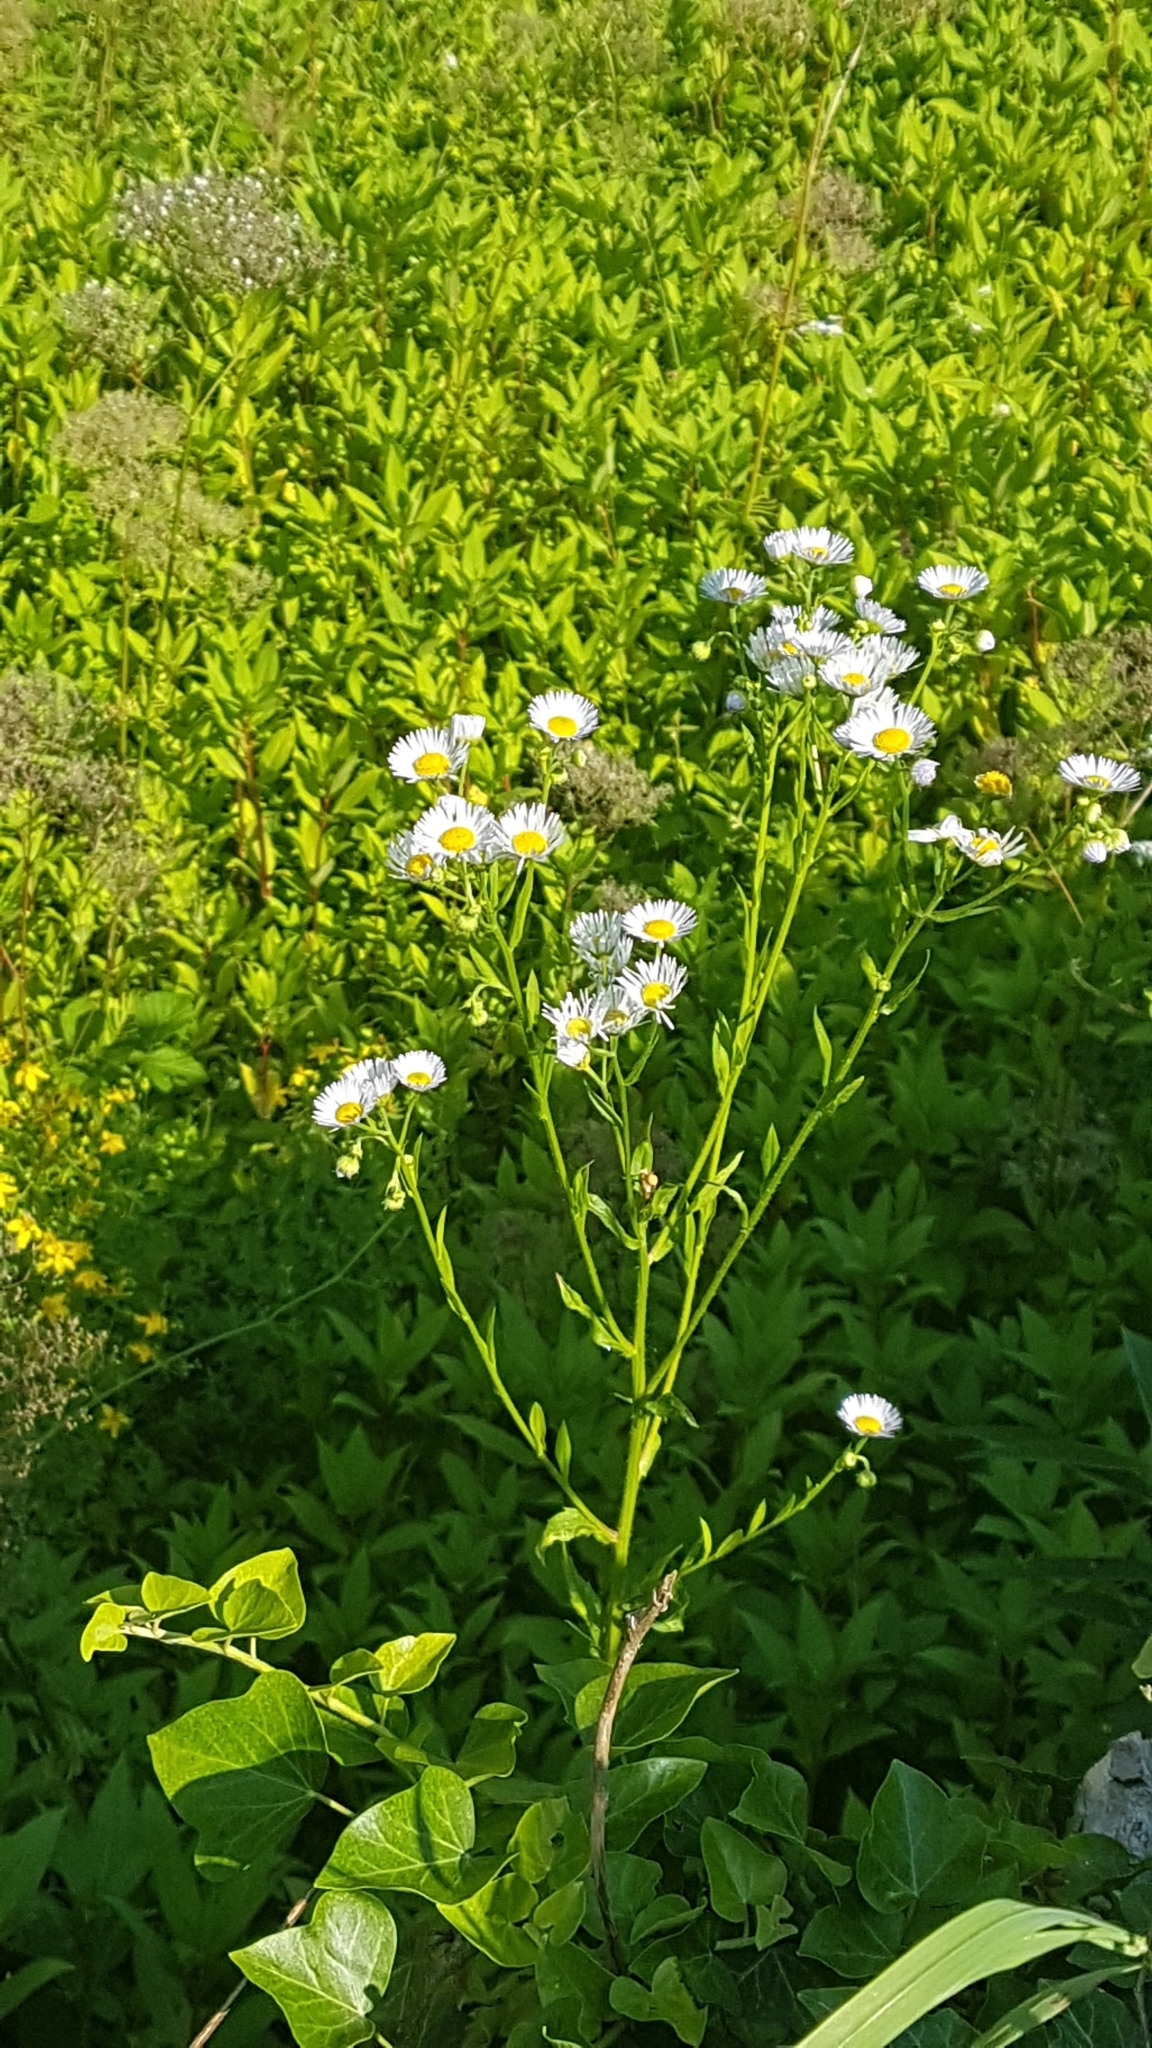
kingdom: Plantae
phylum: Tracheophyta
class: Magnoliopsida
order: Asterales
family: Asteraceae
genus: Erigeron
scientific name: Erigeron annuus
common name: Tall fleabane
